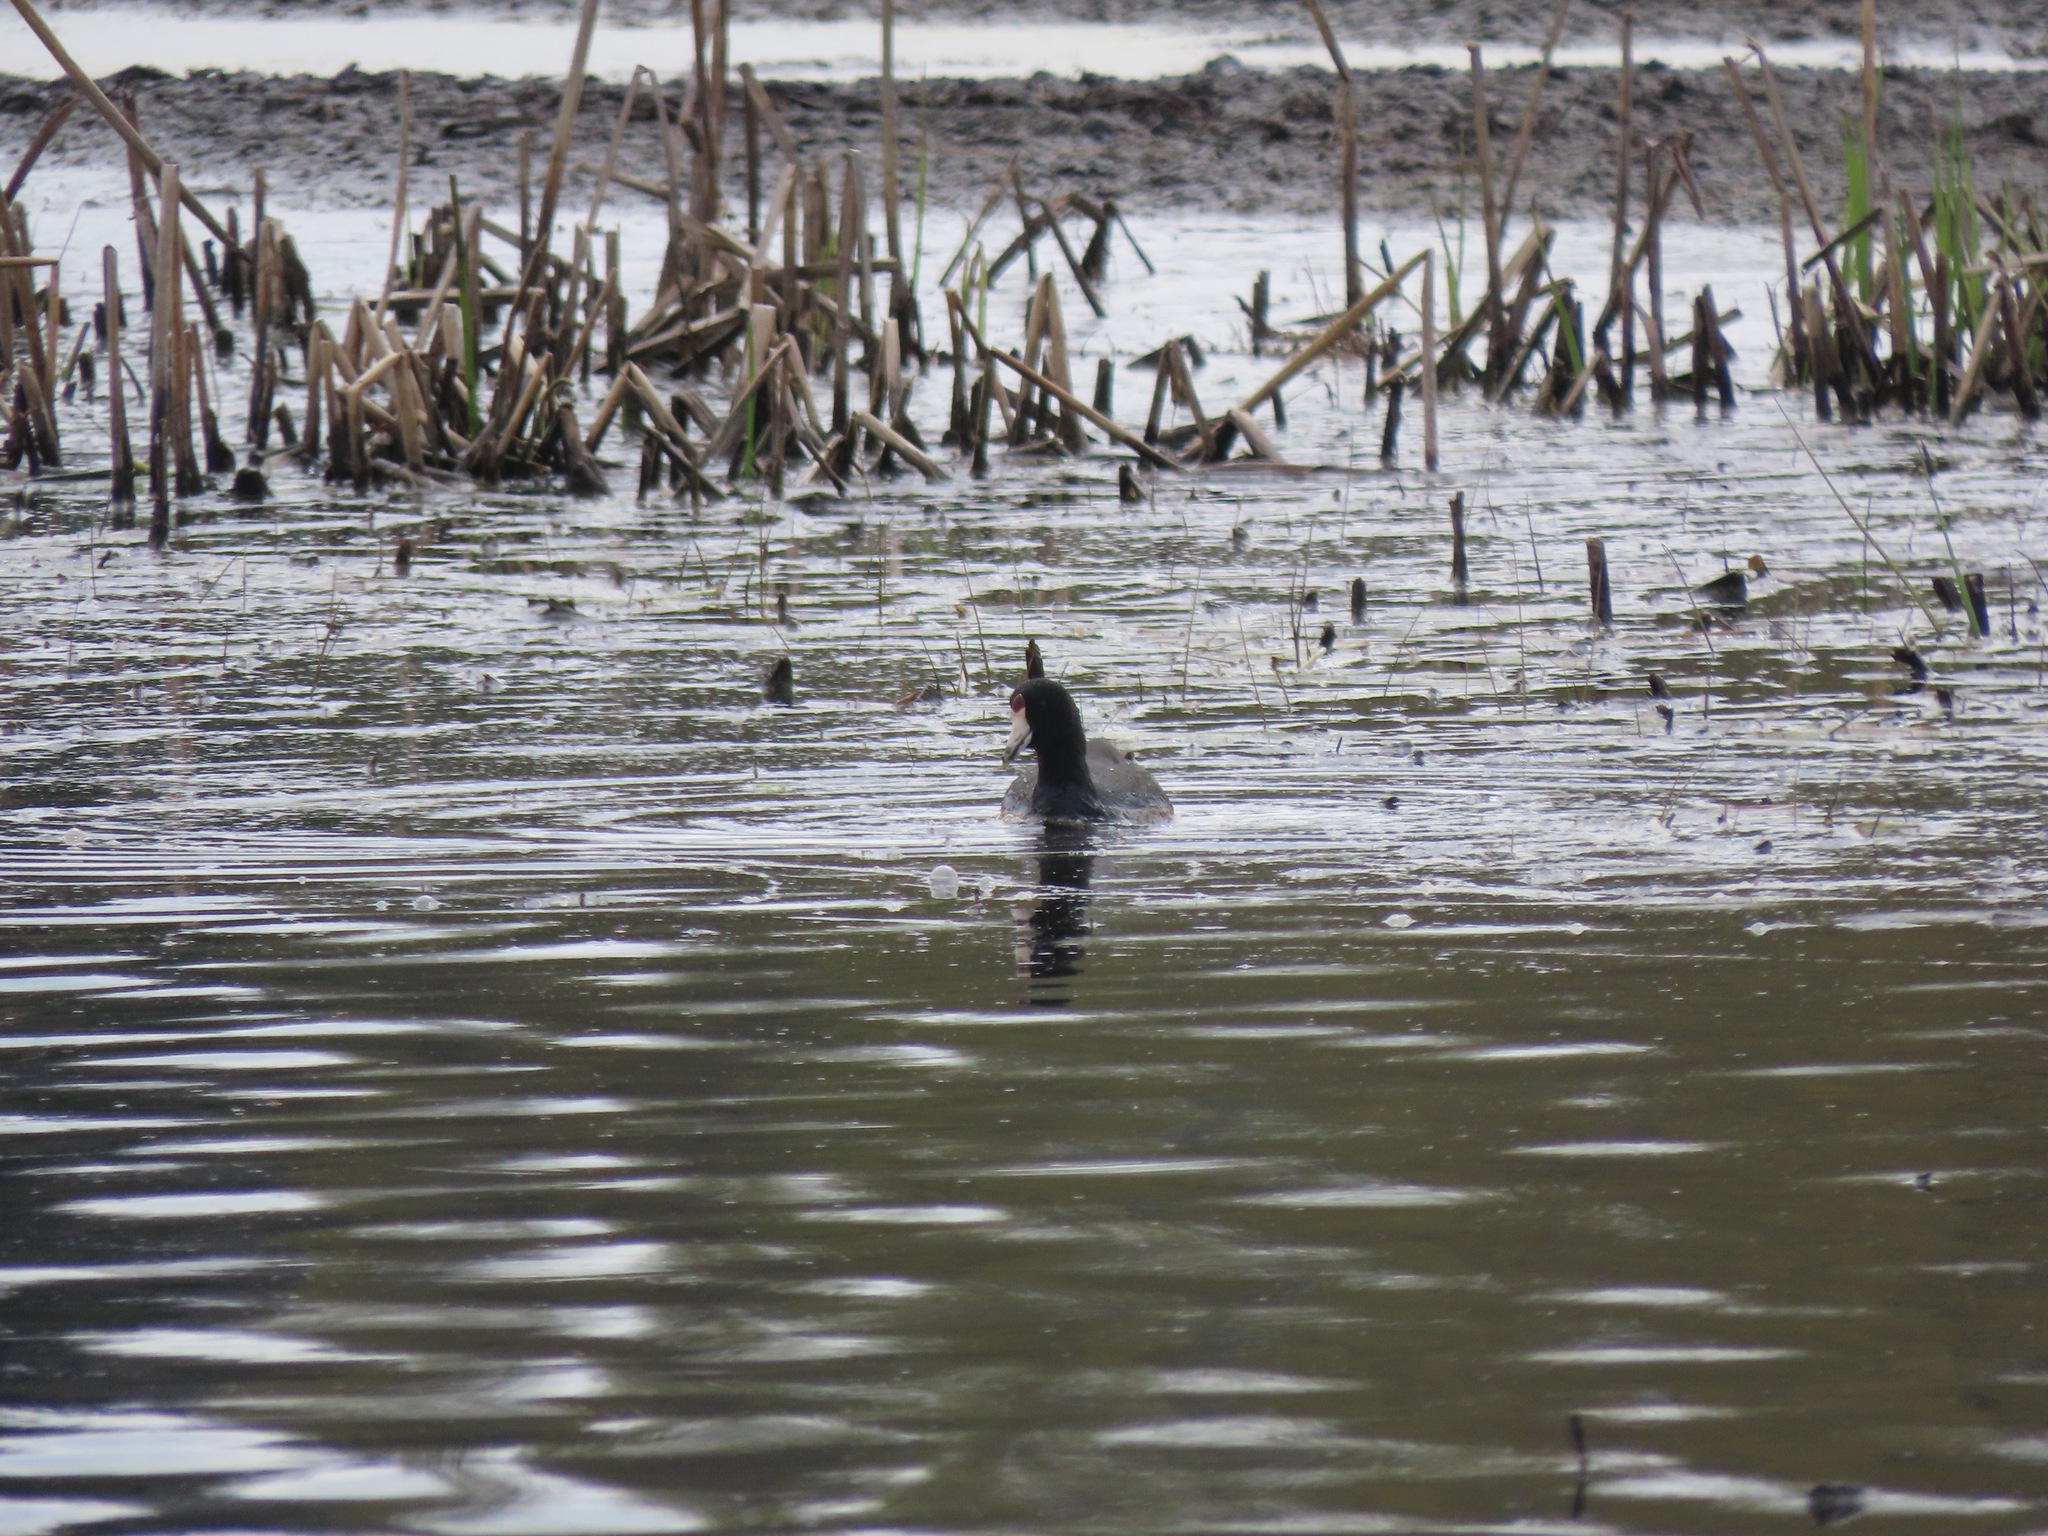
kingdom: Animalia
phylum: Chordata
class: Aves
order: Gruiformes
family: Rallidae
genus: Fulica
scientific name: Fulica americana
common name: American coot
